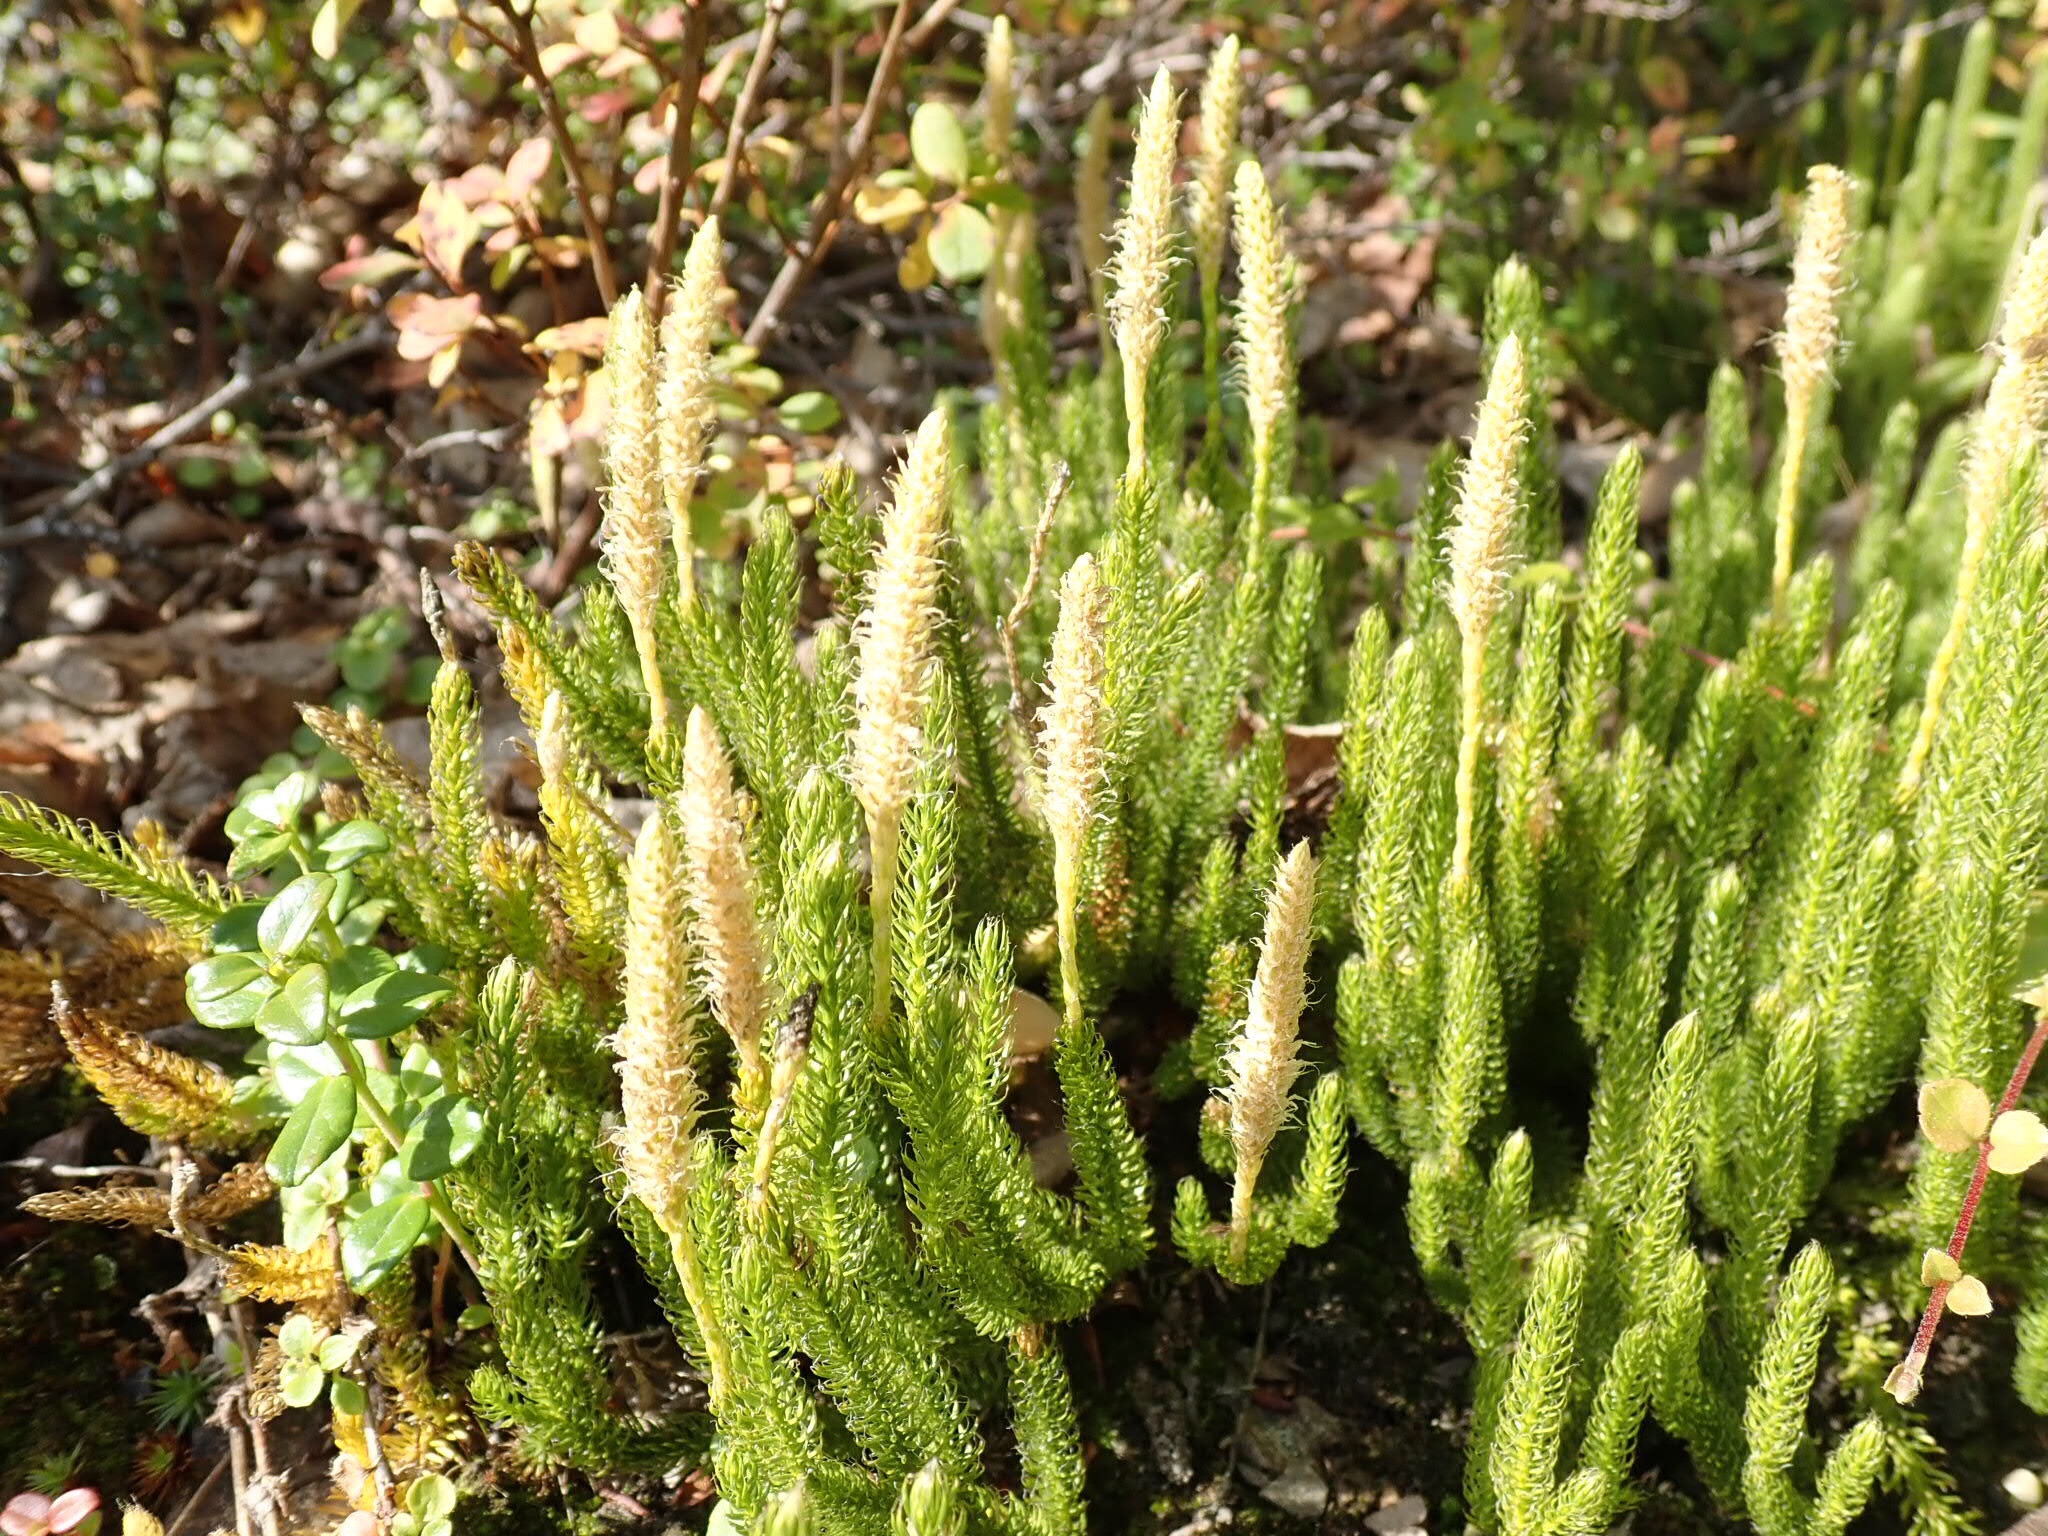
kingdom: Plantae
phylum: Tracheophyta
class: Lycopodiopsida
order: Lycopodiales
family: Lycopodiaceae
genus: Lycopodium
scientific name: Lycopodium lagopus
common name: One-cone clubmoss
